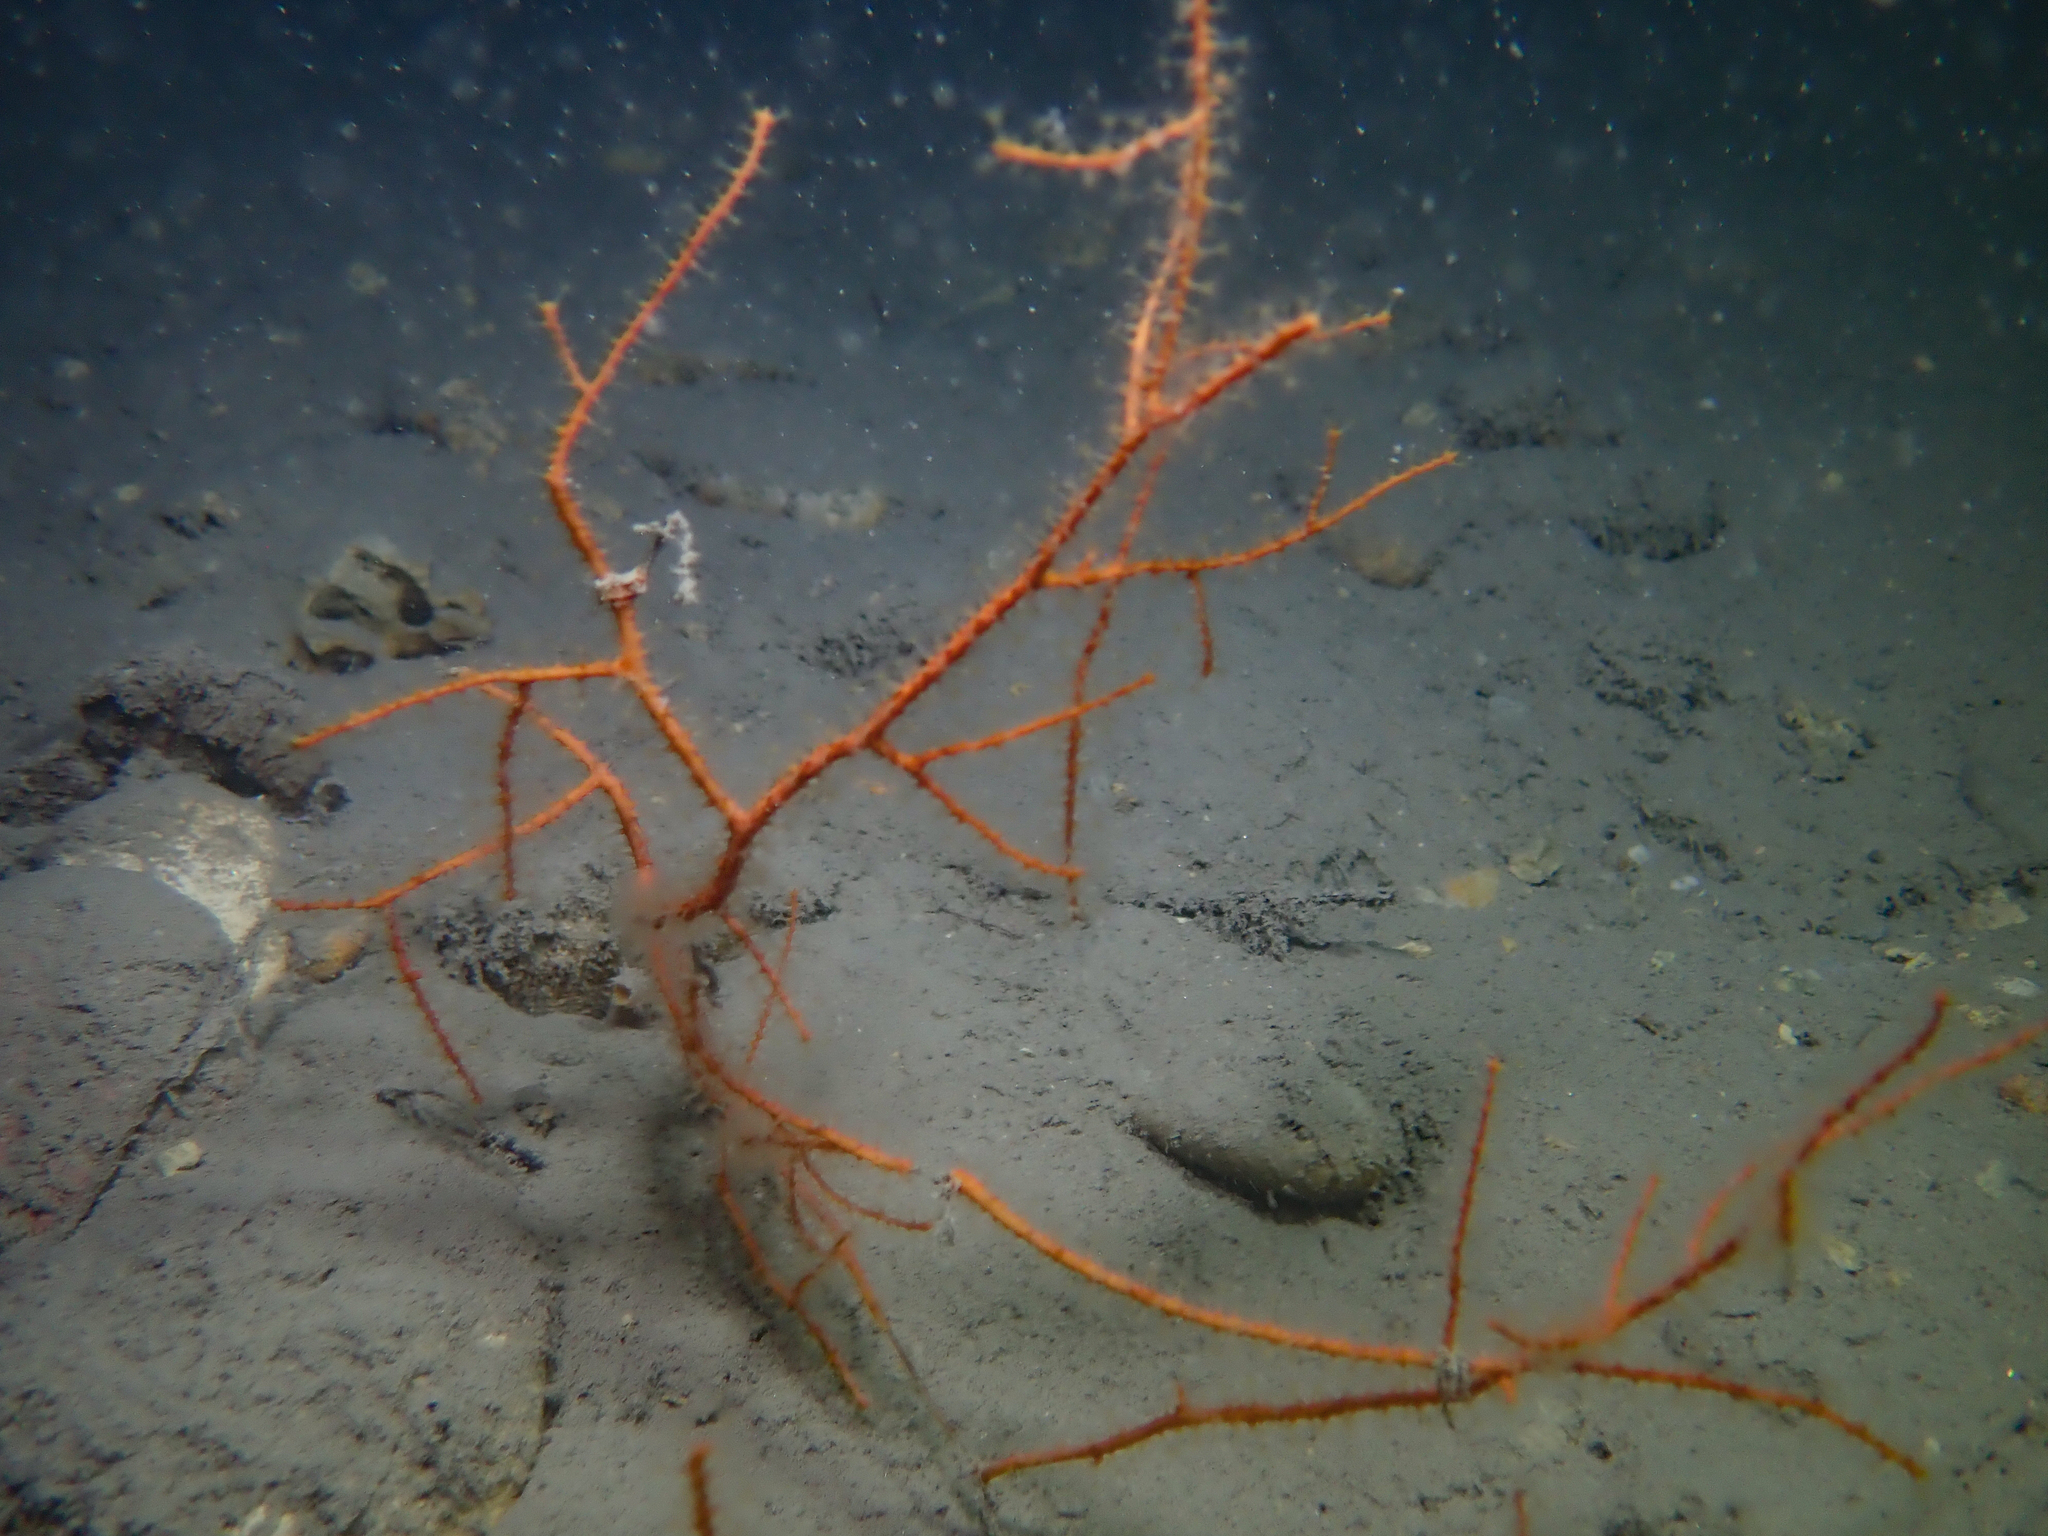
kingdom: Animalia
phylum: Cnidaria
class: Anthozoa
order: Malacalcyonacea
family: Gorgoniidae
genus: Leptogorgia
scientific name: Leptogorgia sarmentosa
